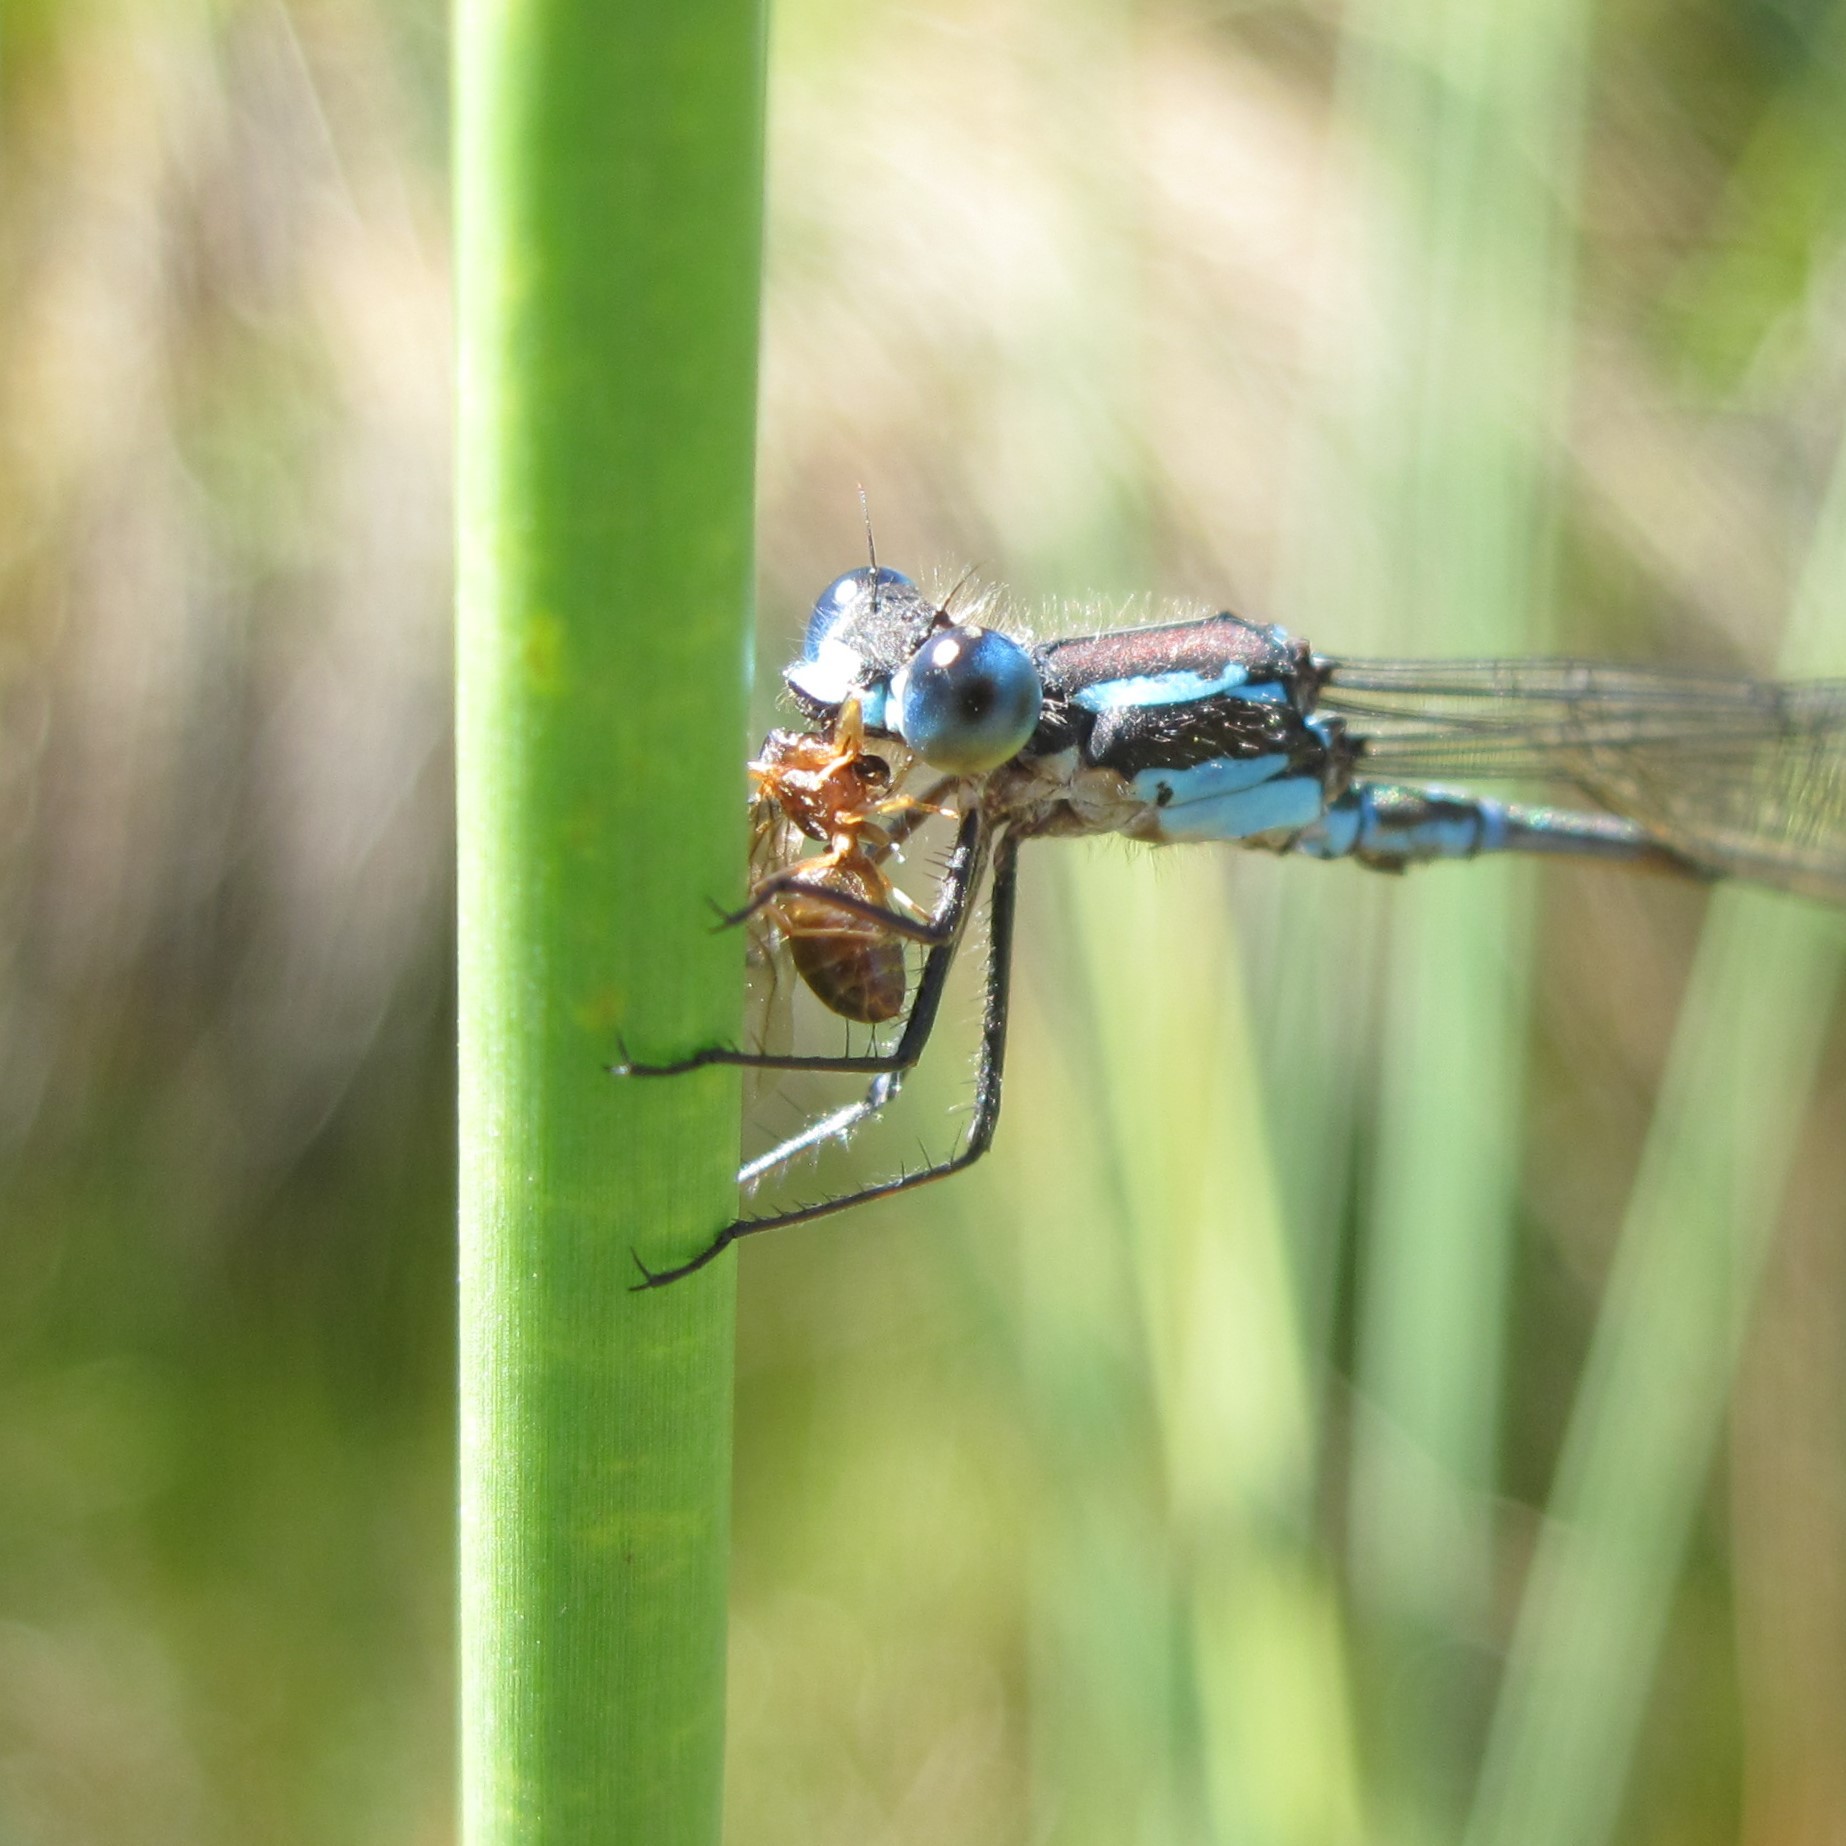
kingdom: Animalia
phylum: Arthropoda
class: Insecta
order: Odonata
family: Lestidae
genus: Austrolestes
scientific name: Austrolestes colensonis
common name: Blue damselfly
